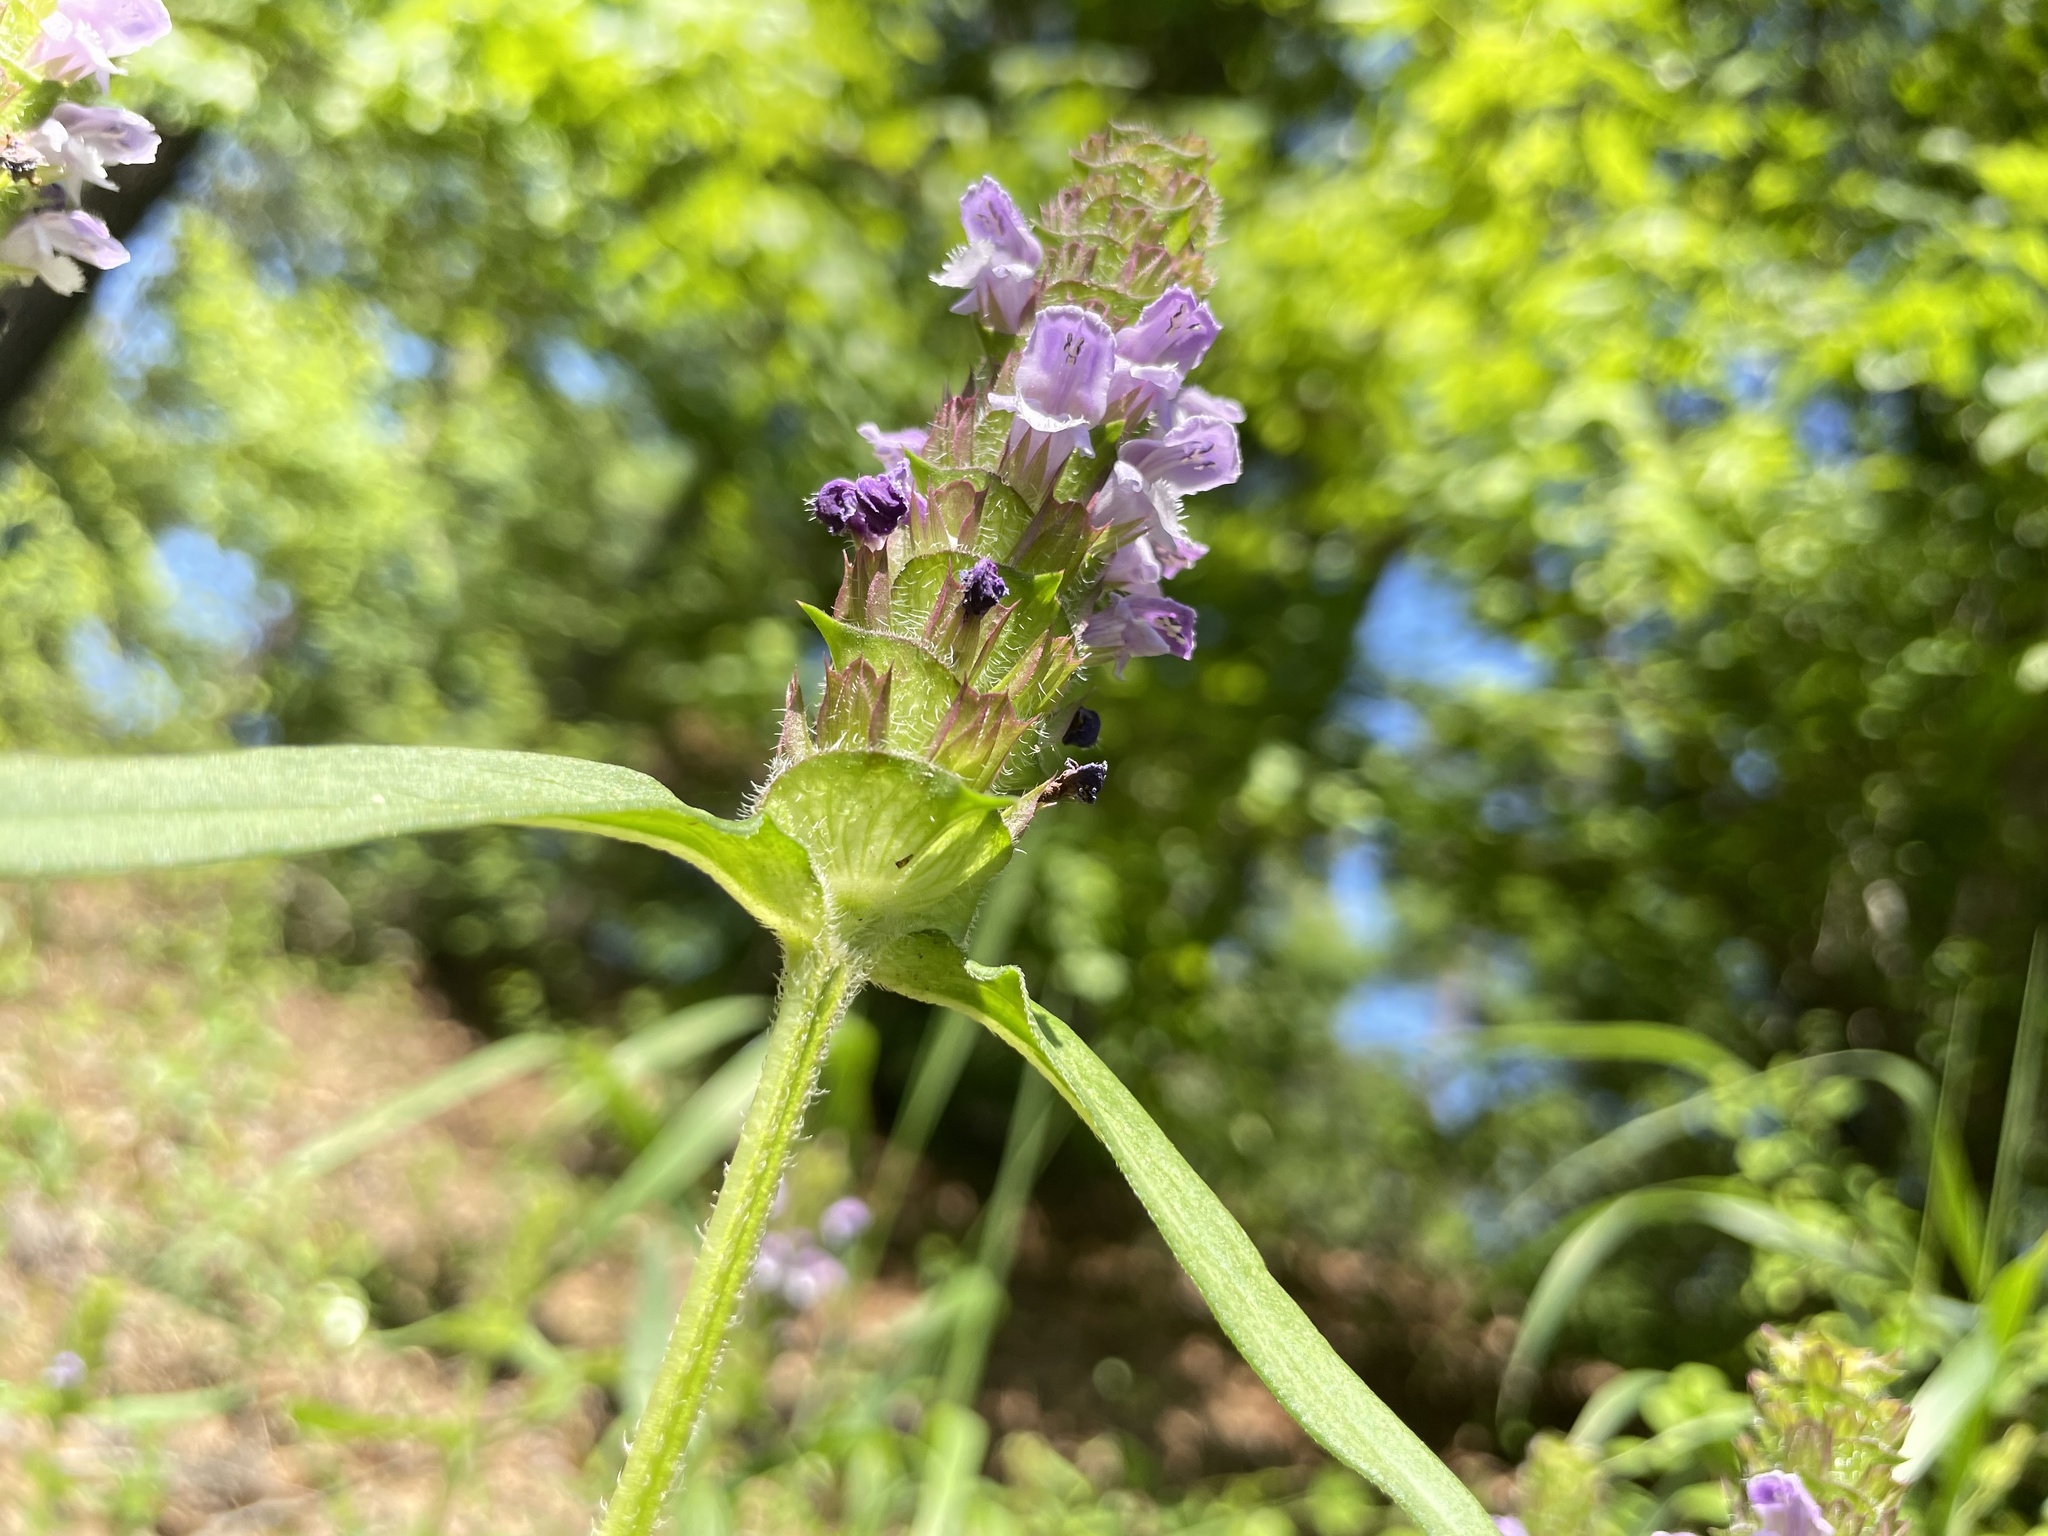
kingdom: Plantae
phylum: Tracheophyta
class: Magnoliopsida
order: Lamiales
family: Lamiaceae
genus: Prunella
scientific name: Prunella vulgaris
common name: Heal-all
